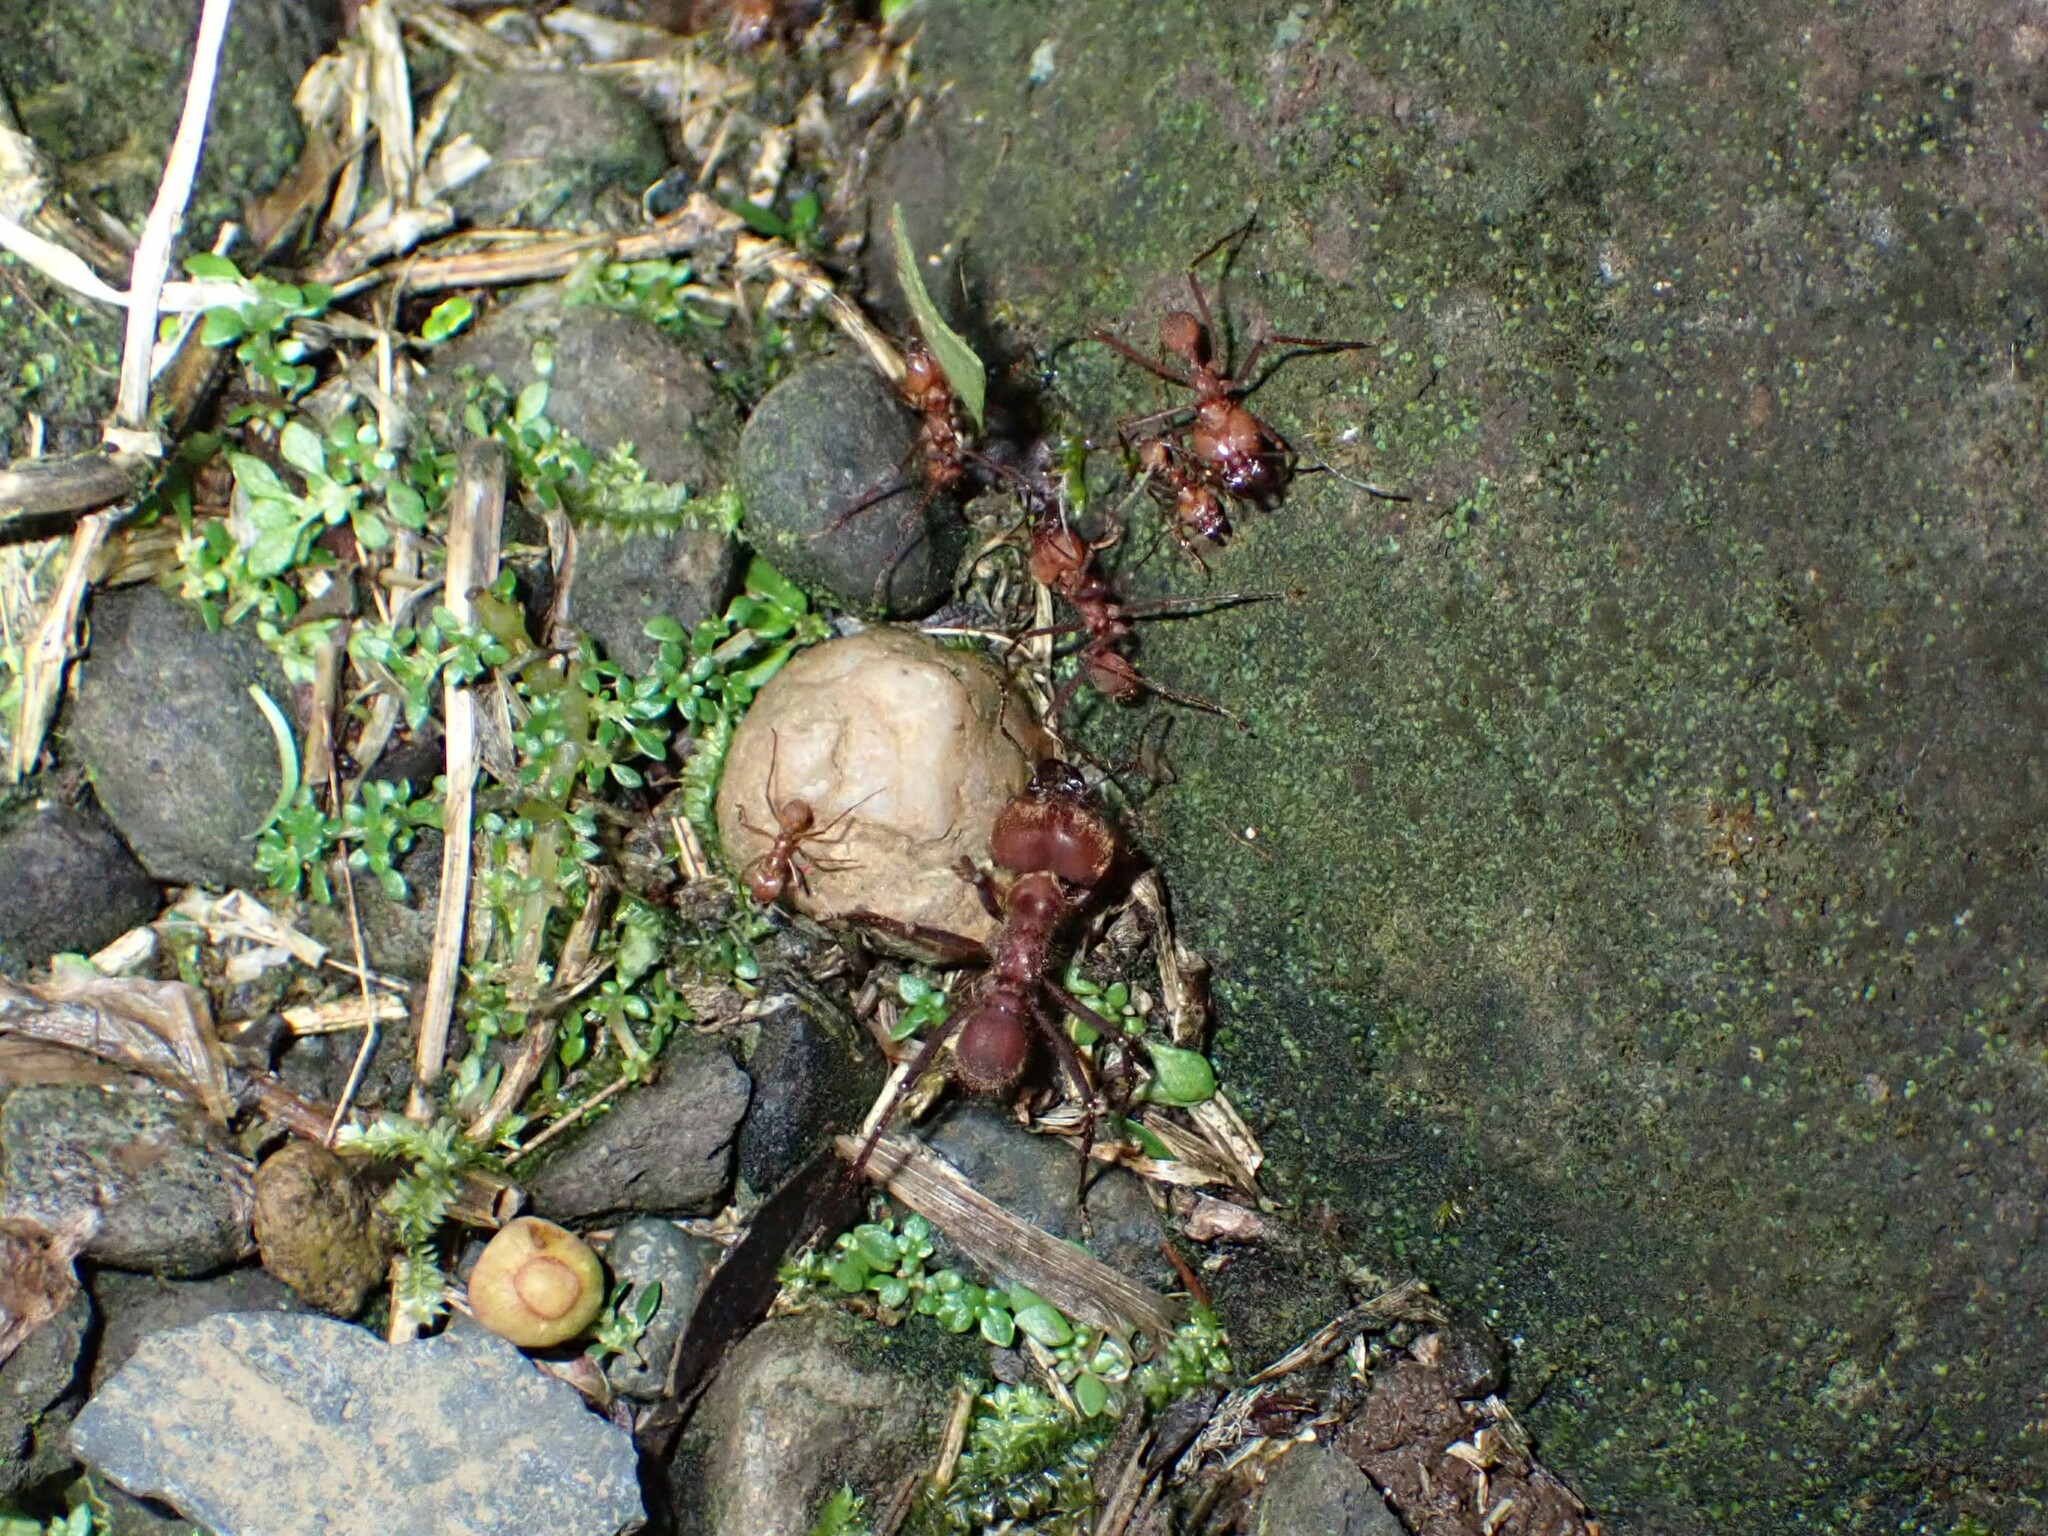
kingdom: Animalia
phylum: Arthropoda
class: Insecta
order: Hymenoptera
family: Formicidae
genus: Atta
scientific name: Atta cephalotes
